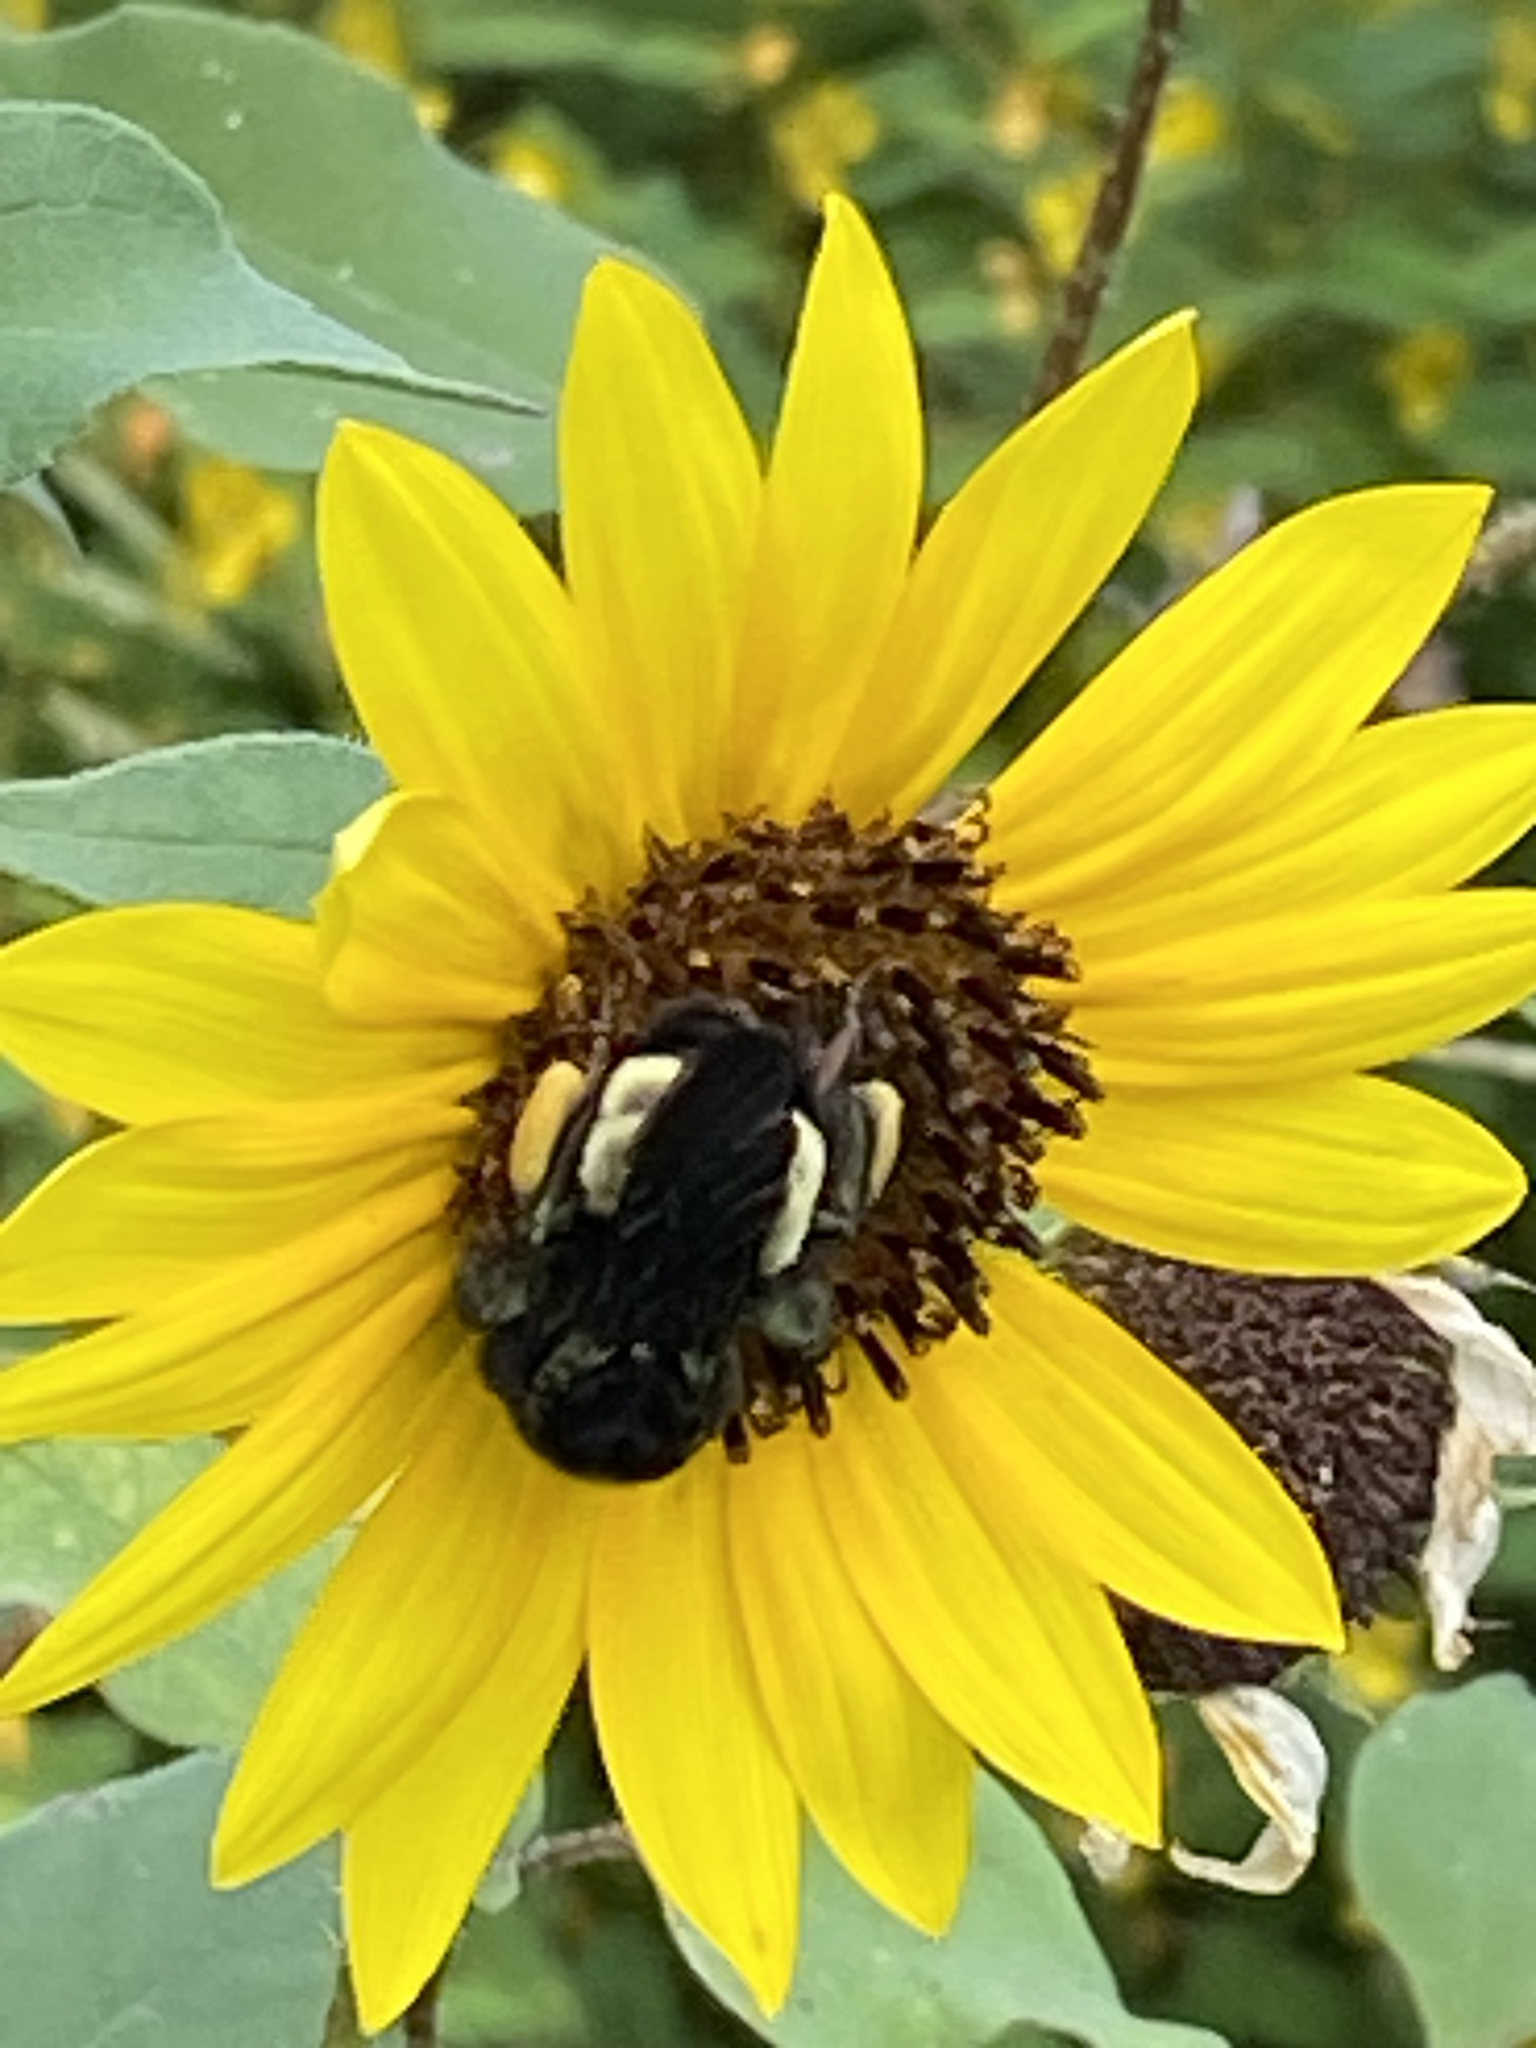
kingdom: Animalia
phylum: Arthropoda
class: Insecta
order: Hymenoptera
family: Apidae
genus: Bombus
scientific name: Bombus pensylvanicus
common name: Bumble bee
